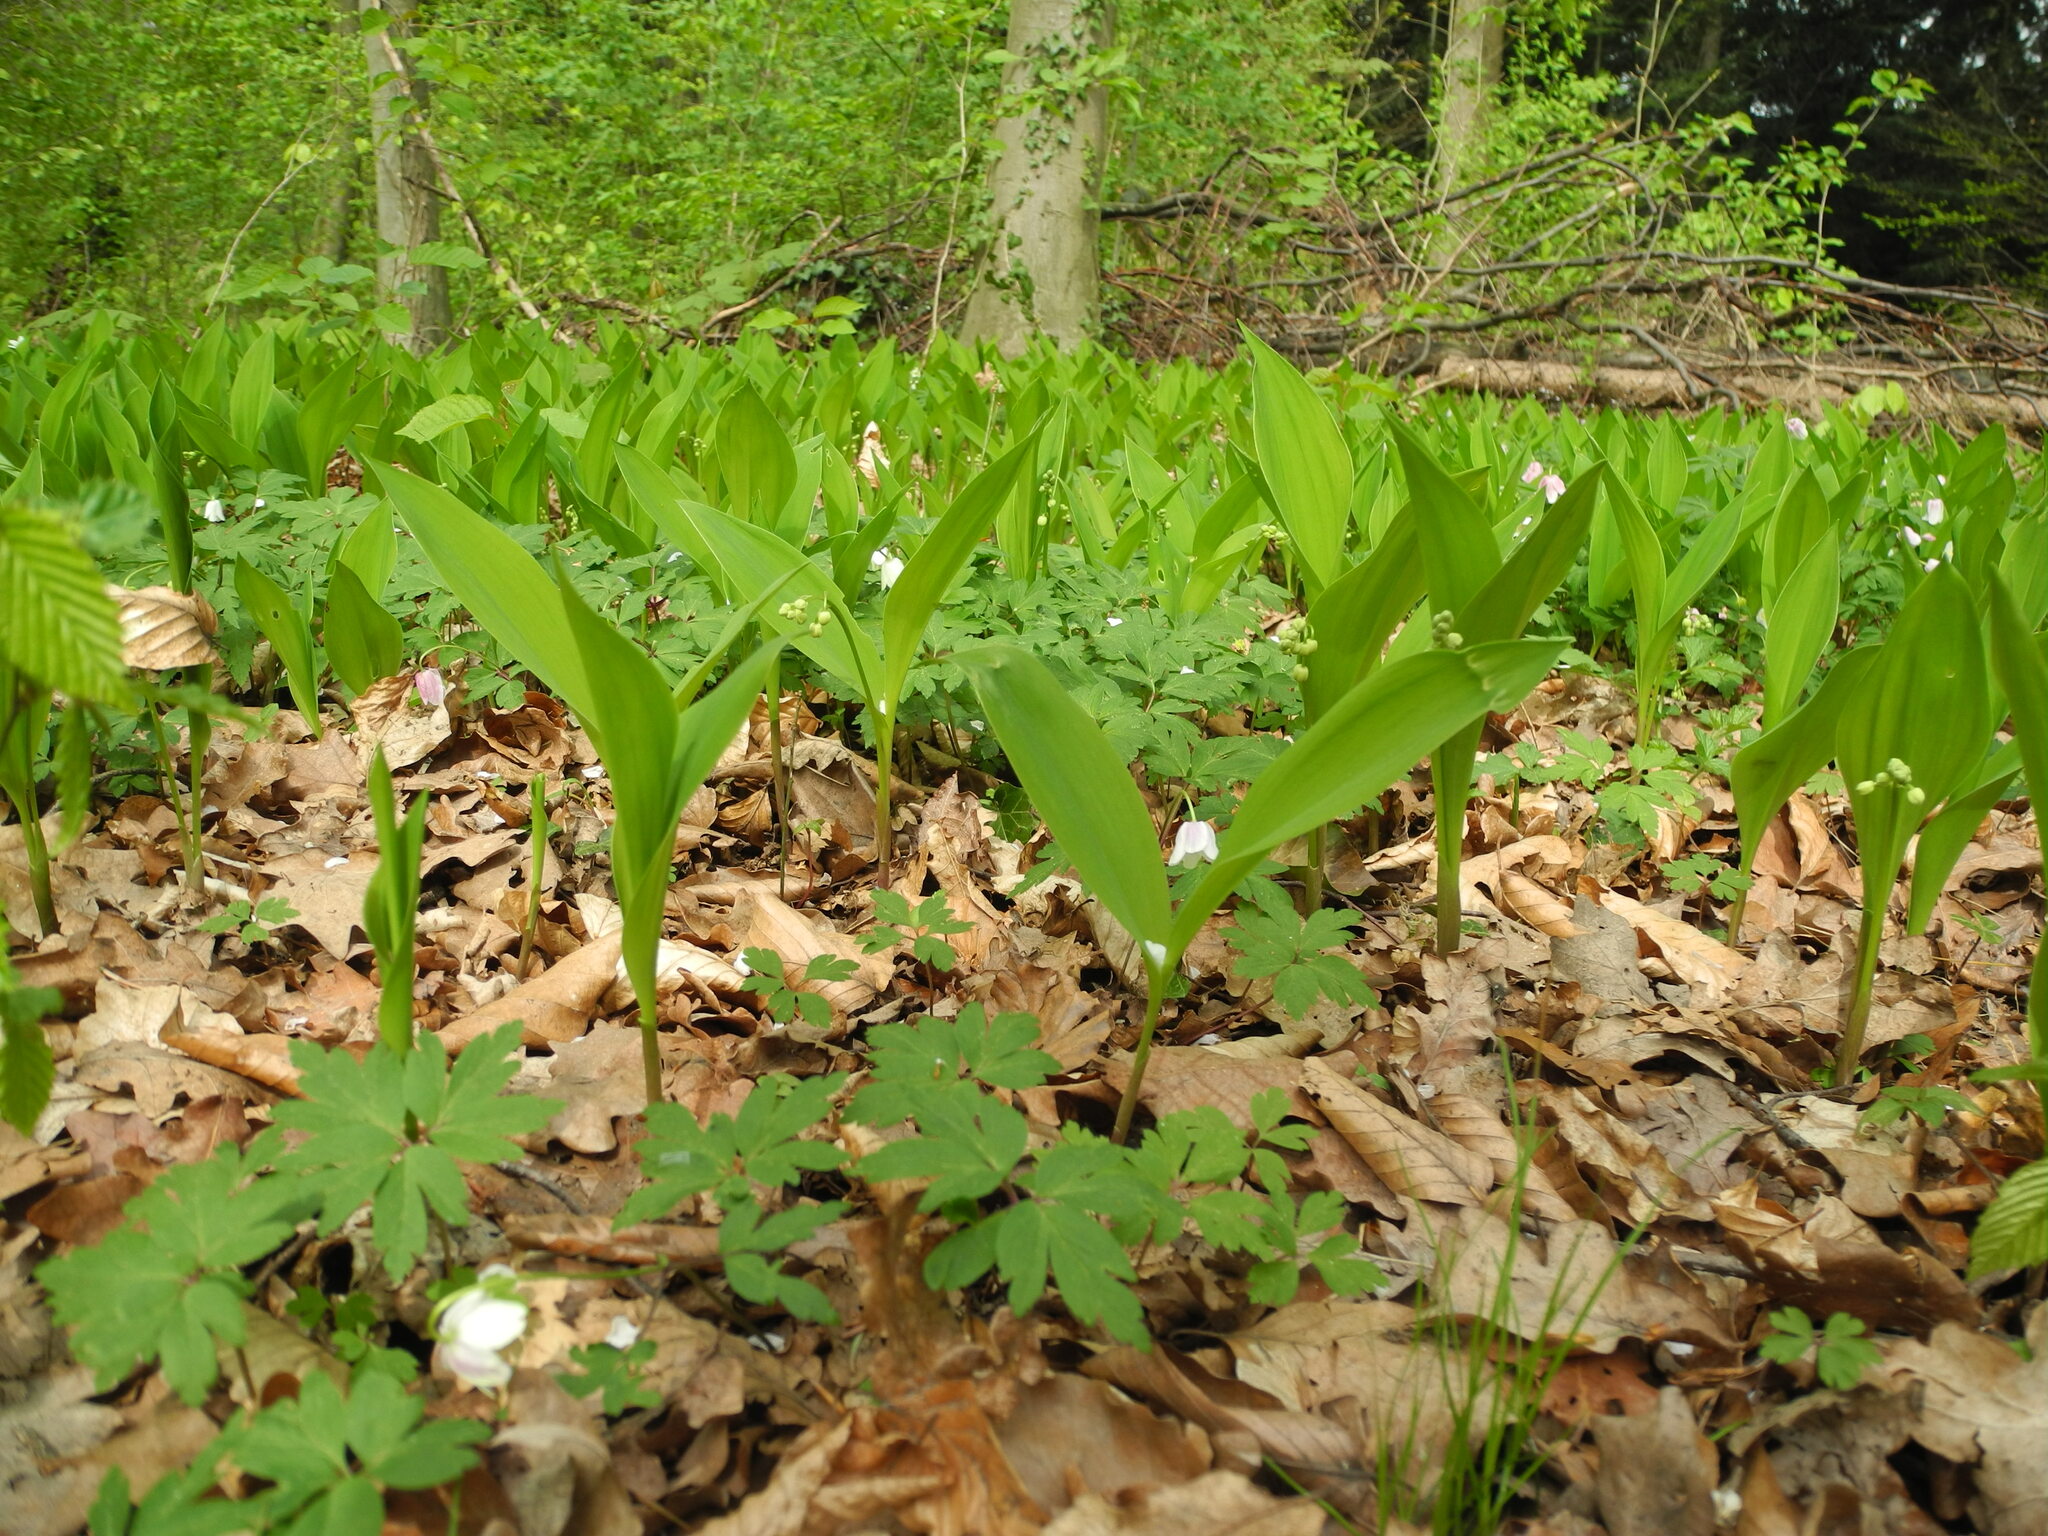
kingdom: Plantae
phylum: Tracheophyta
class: Liliopsida
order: Asparagales
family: Asparagaceae
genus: Convallaria
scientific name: Convallaria majalis
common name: Lily-of-the-valley
